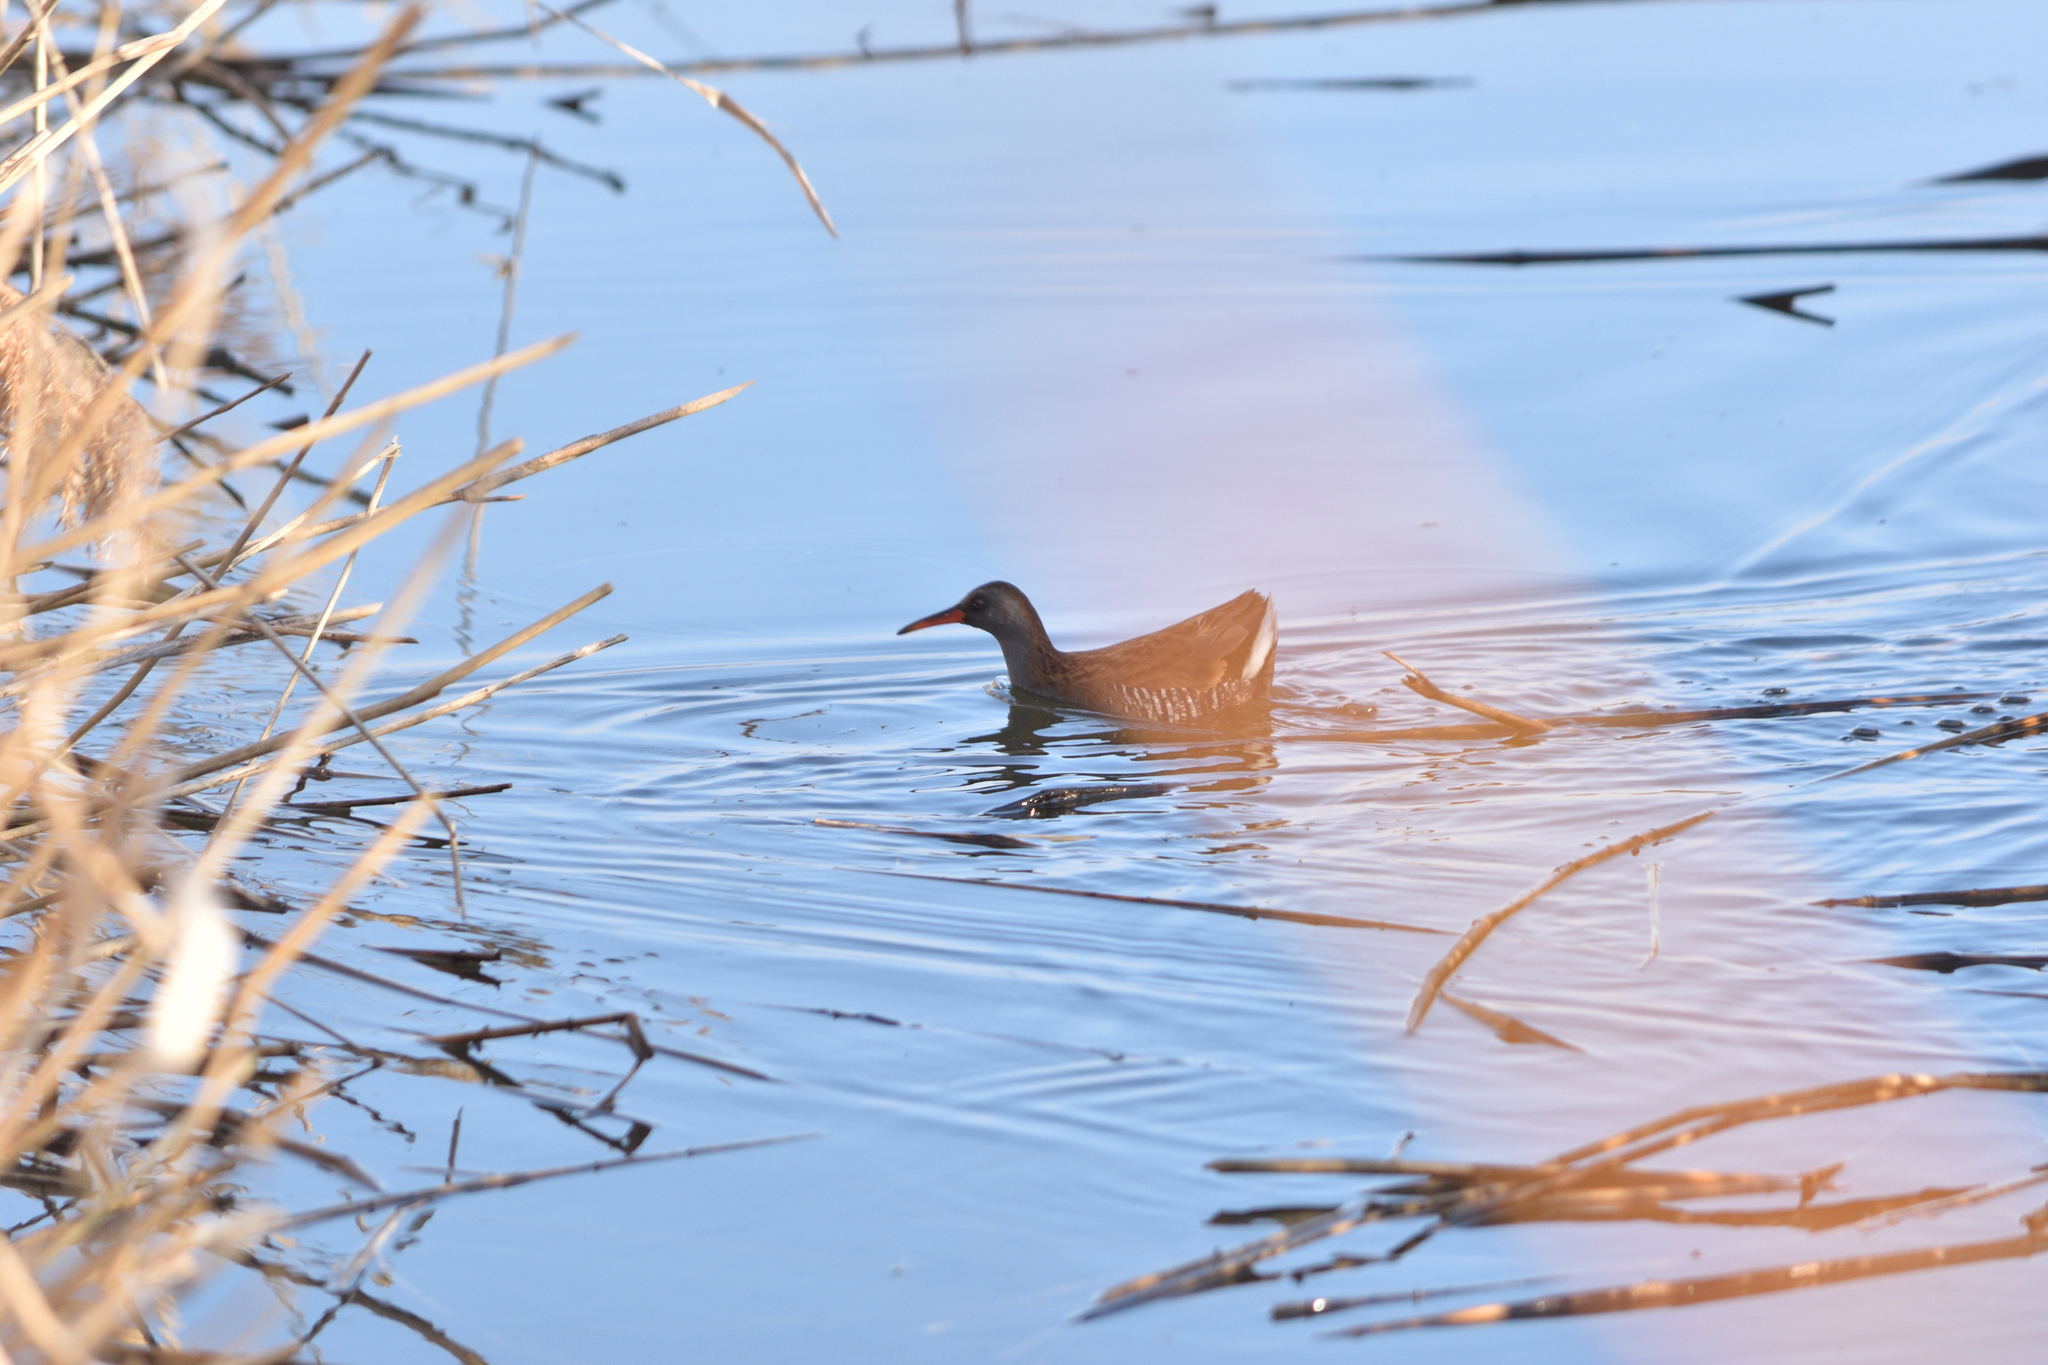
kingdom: Animalia
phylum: Chordata
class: Aves
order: Gruiformes
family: Rallidae
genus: Rallus
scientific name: Rallus aquaticus
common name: Water rail
